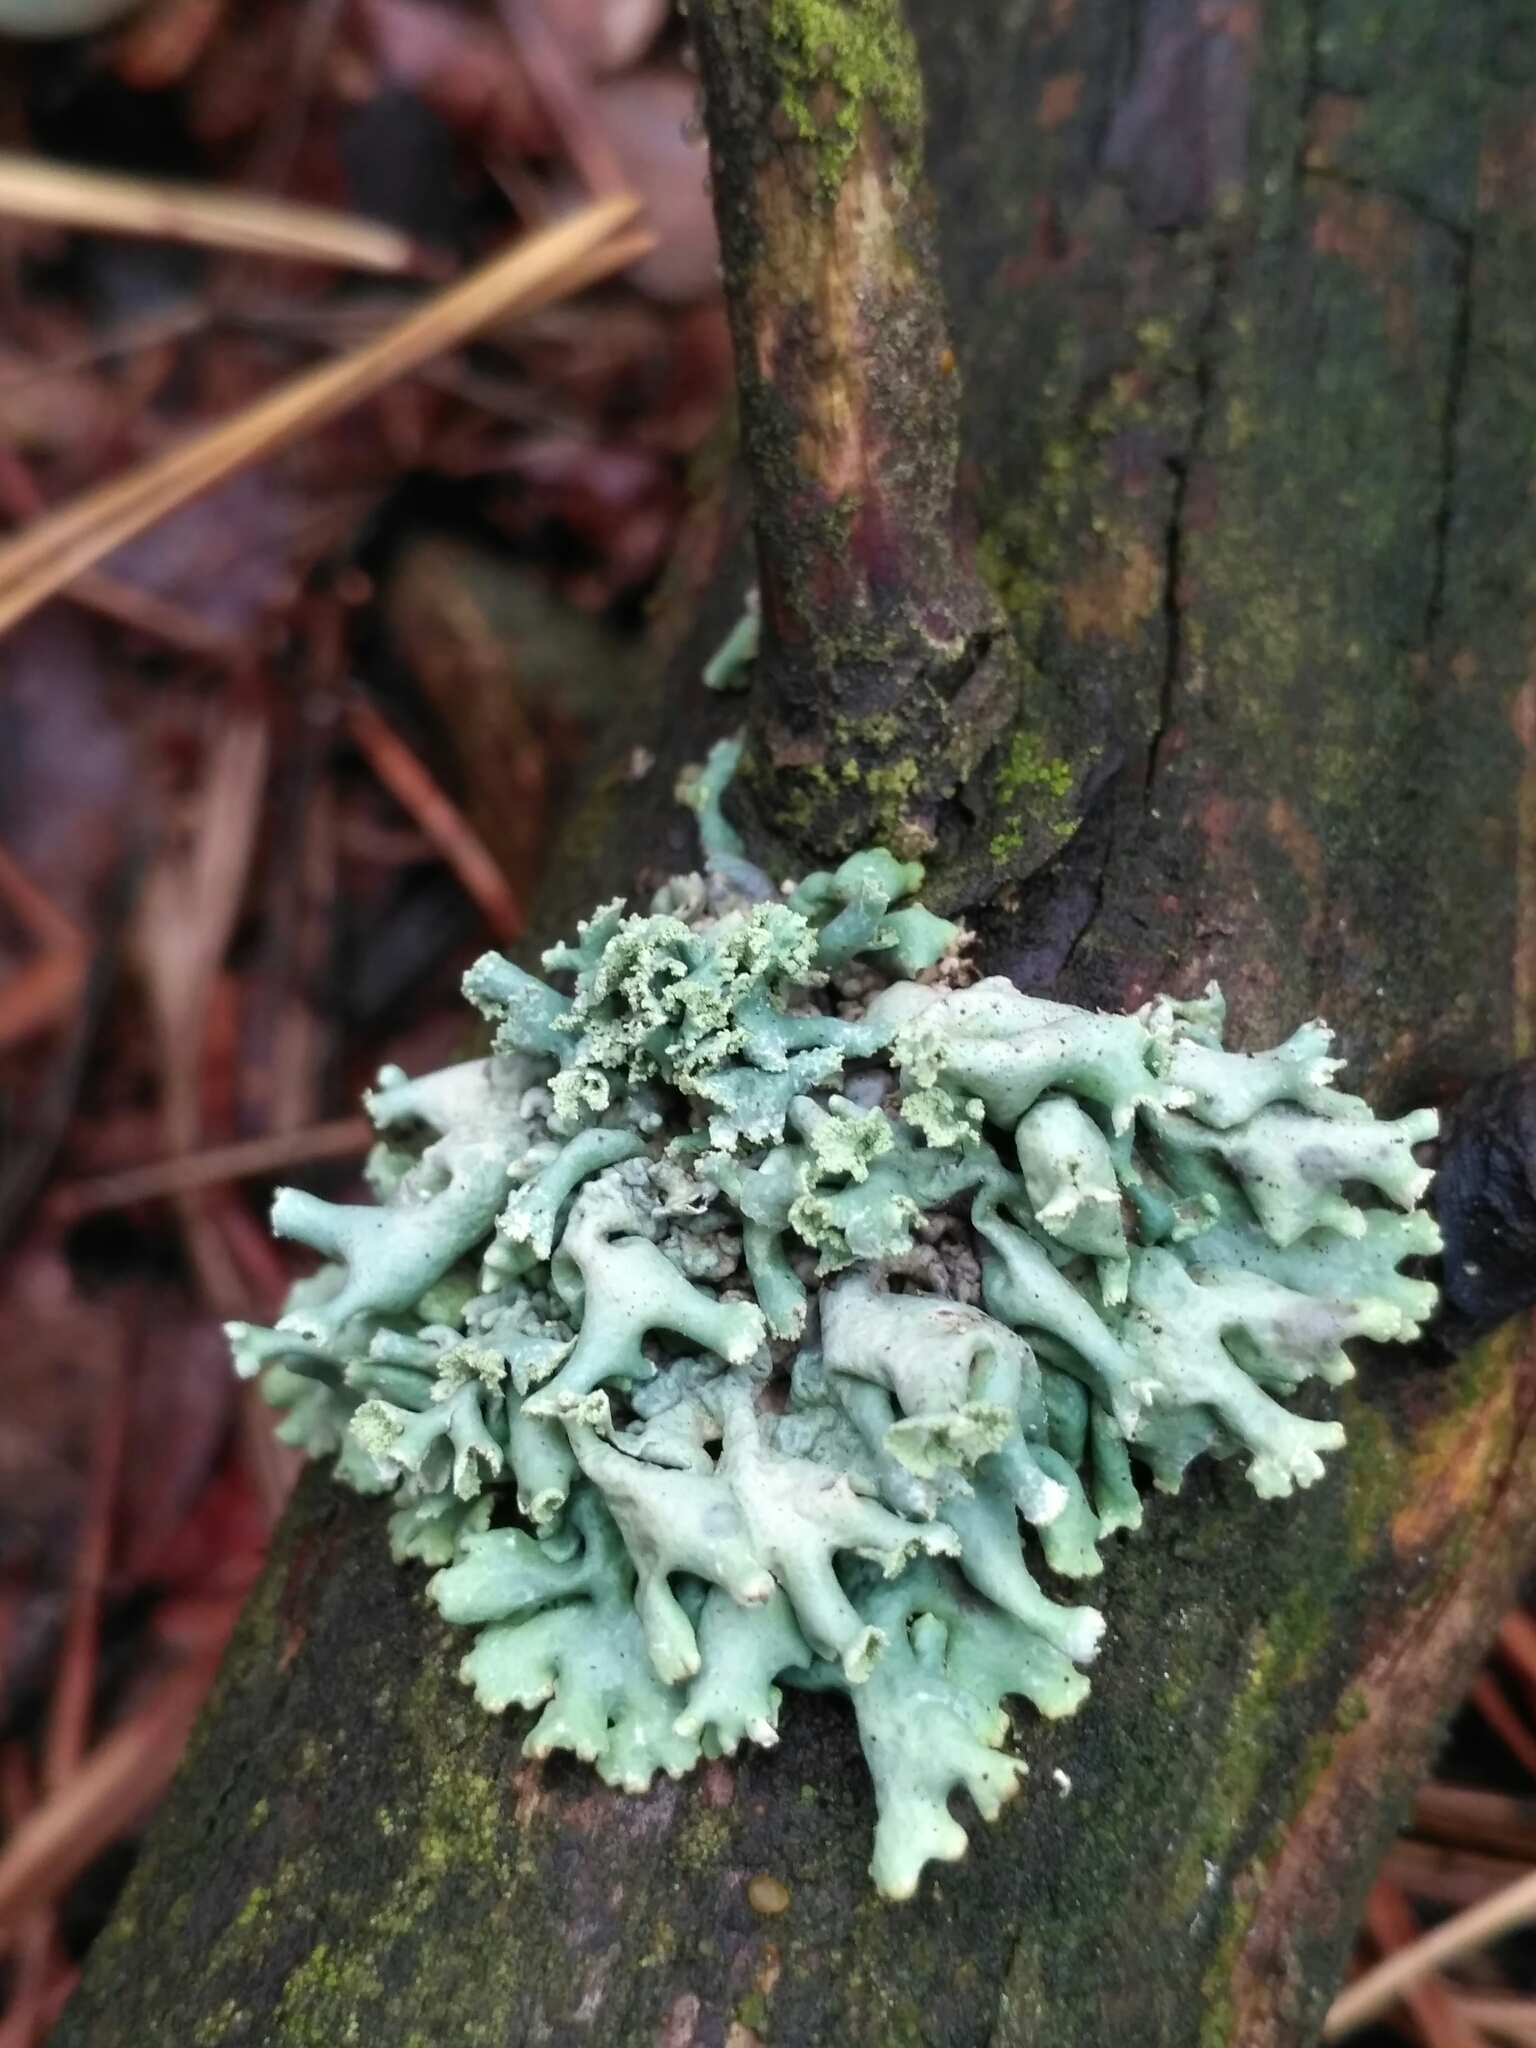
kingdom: Fungi
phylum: Ascomycota
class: Lecanoromycetes
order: Lecanorales
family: Parmeliaceae
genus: Hypogymnia
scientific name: Hypogymnia physodes
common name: Dark crottle
